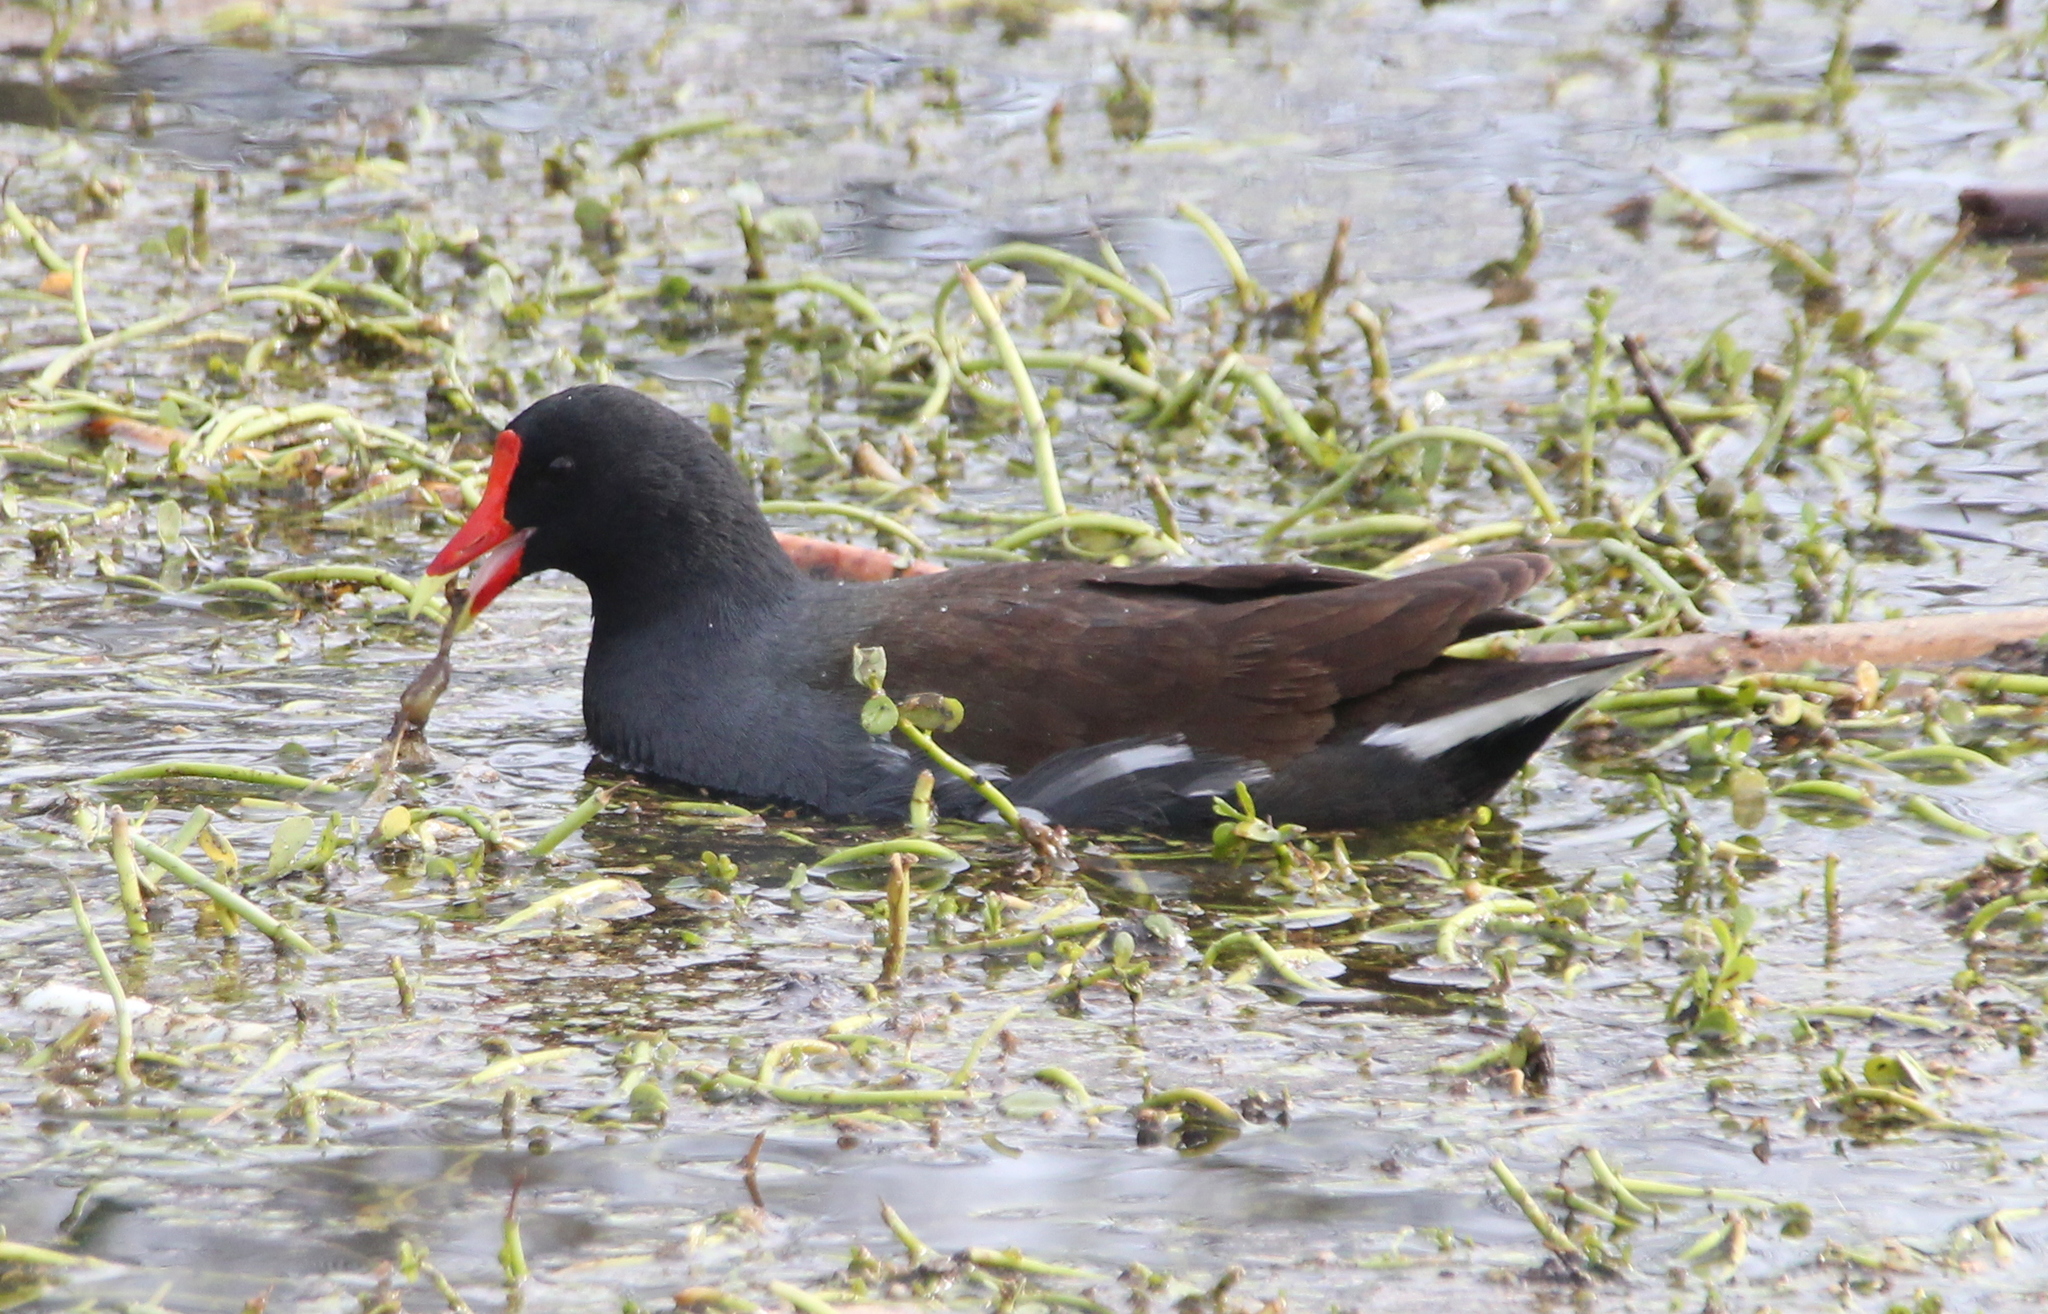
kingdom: Animalia
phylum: Chordata
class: Aves
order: Gruiformes
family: Rallidae
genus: Gallinula
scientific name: Gallinula chloropus
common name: Common moorhen
